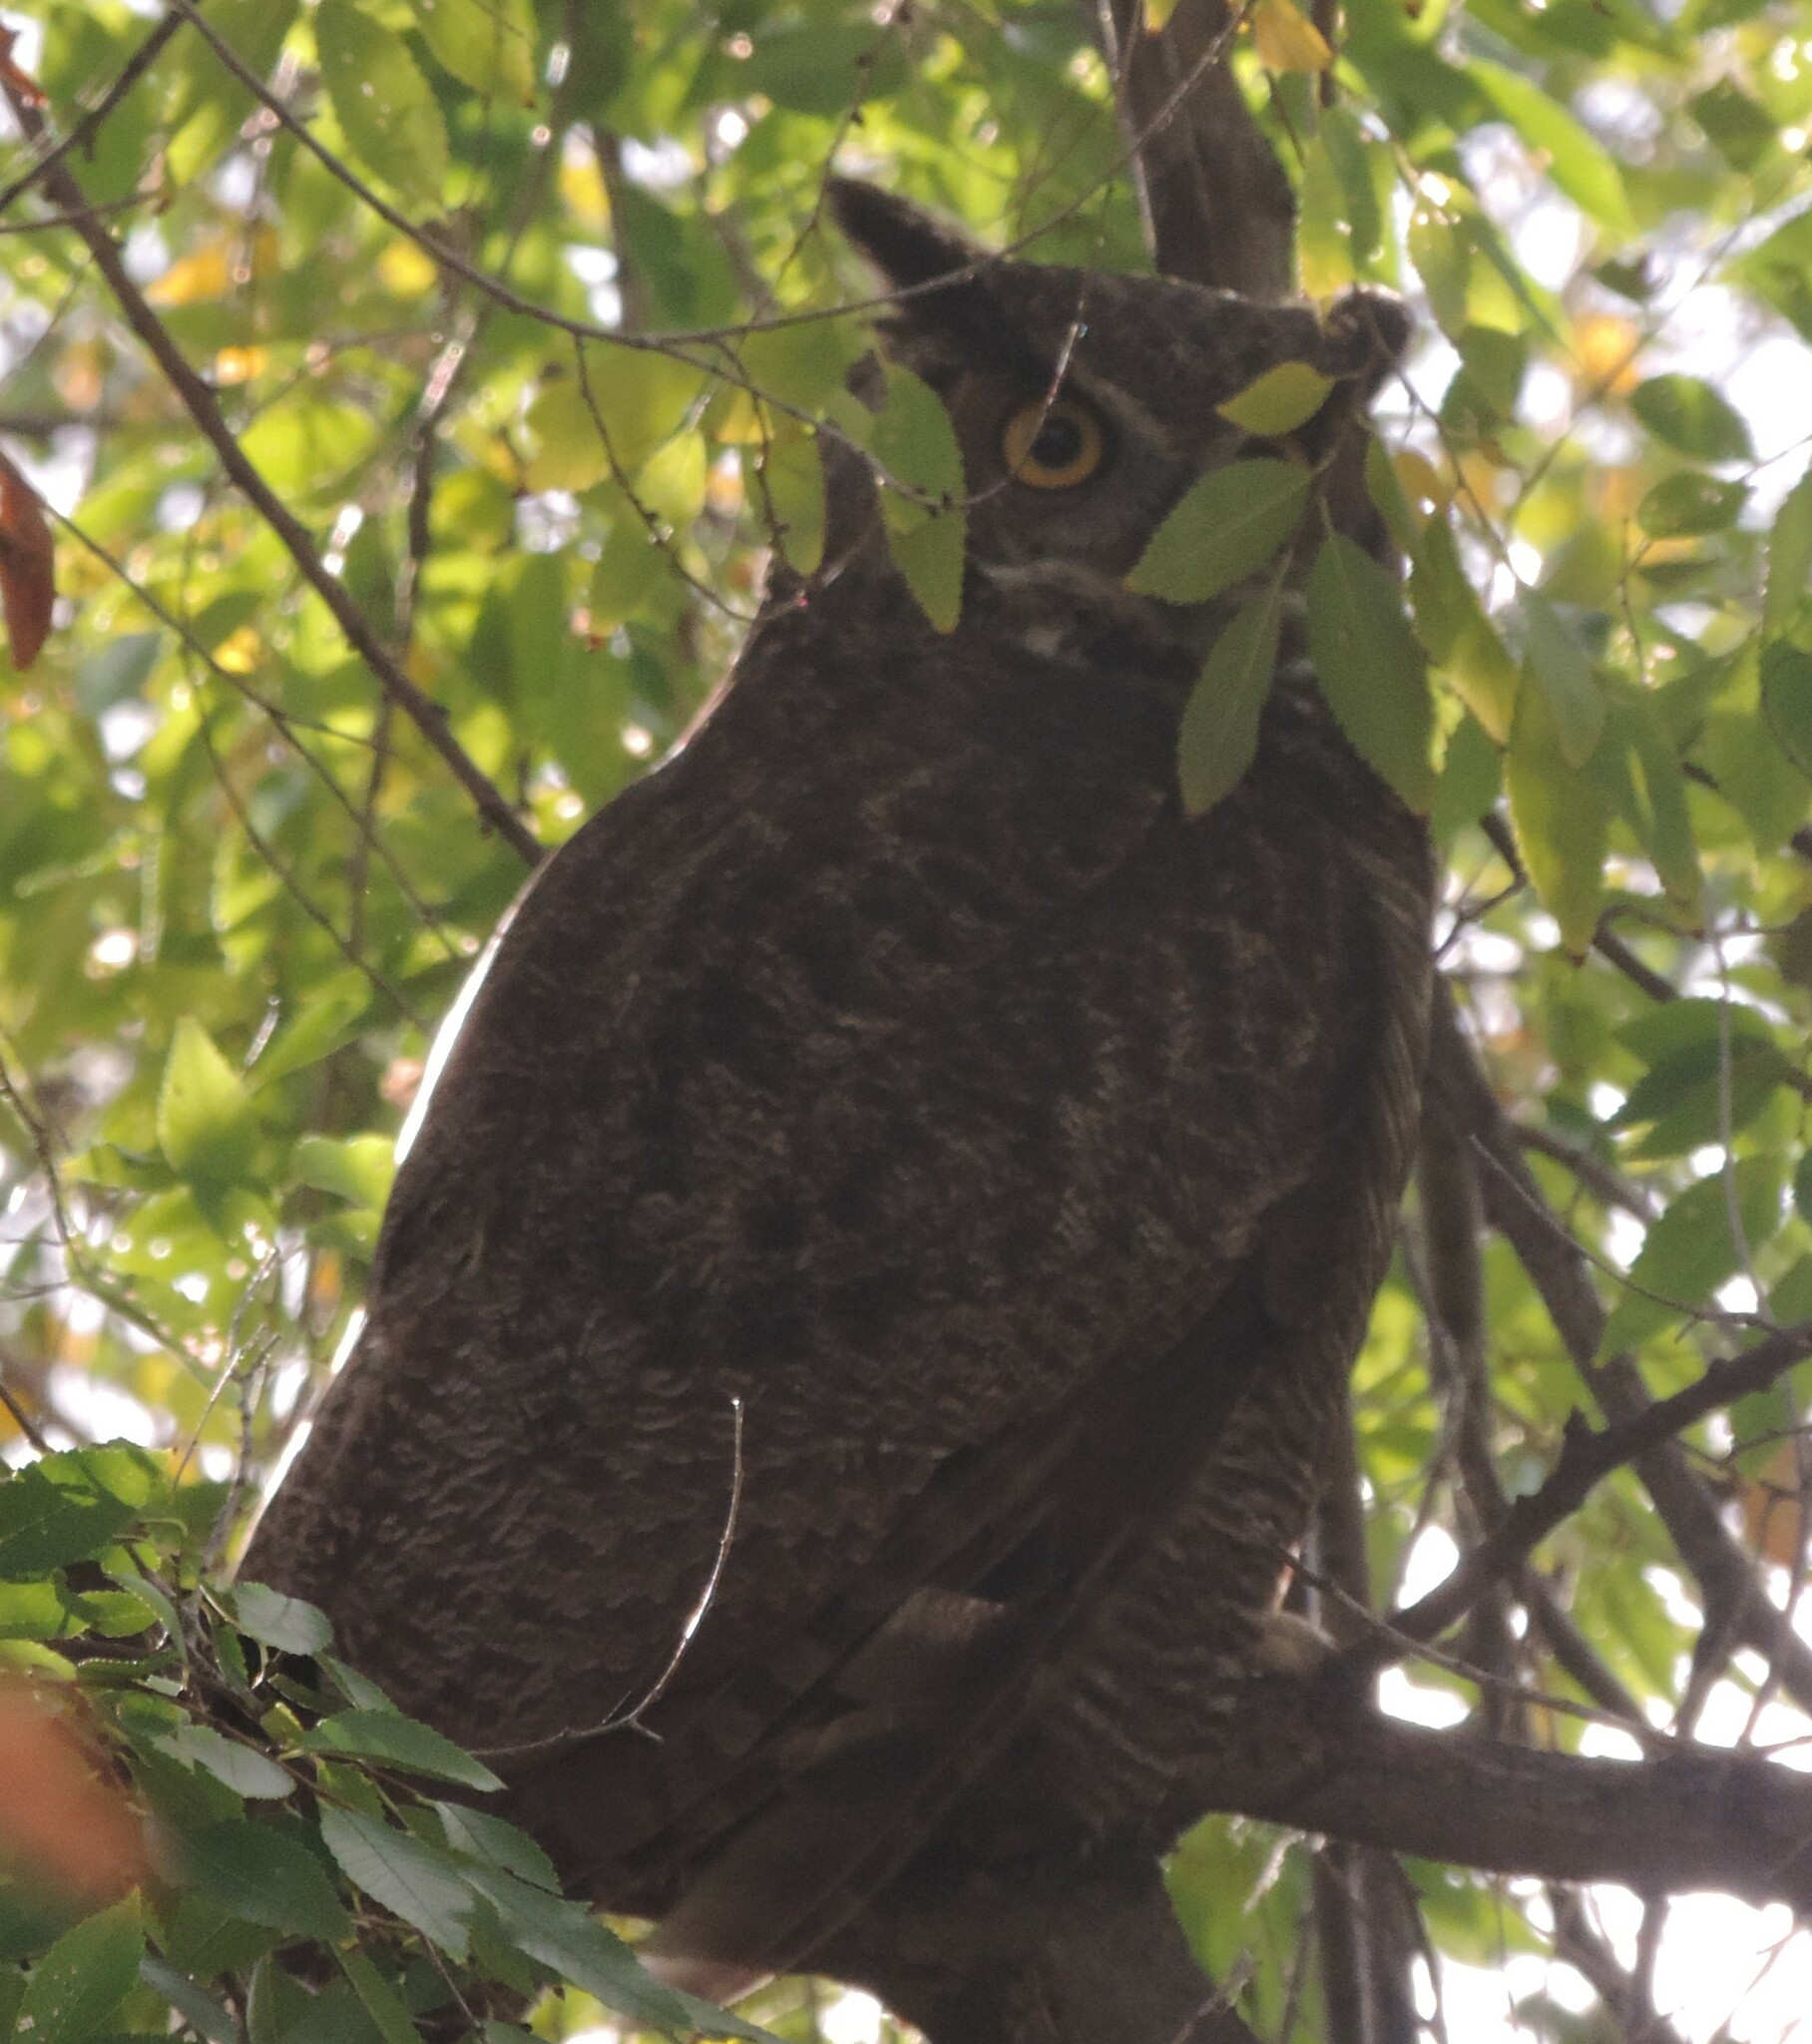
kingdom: Animalia
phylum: Chordata
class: Aves
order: Strigiformes
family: Strigidae
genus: Bubo
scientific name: Bubo virginianus
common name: Great horned owl
